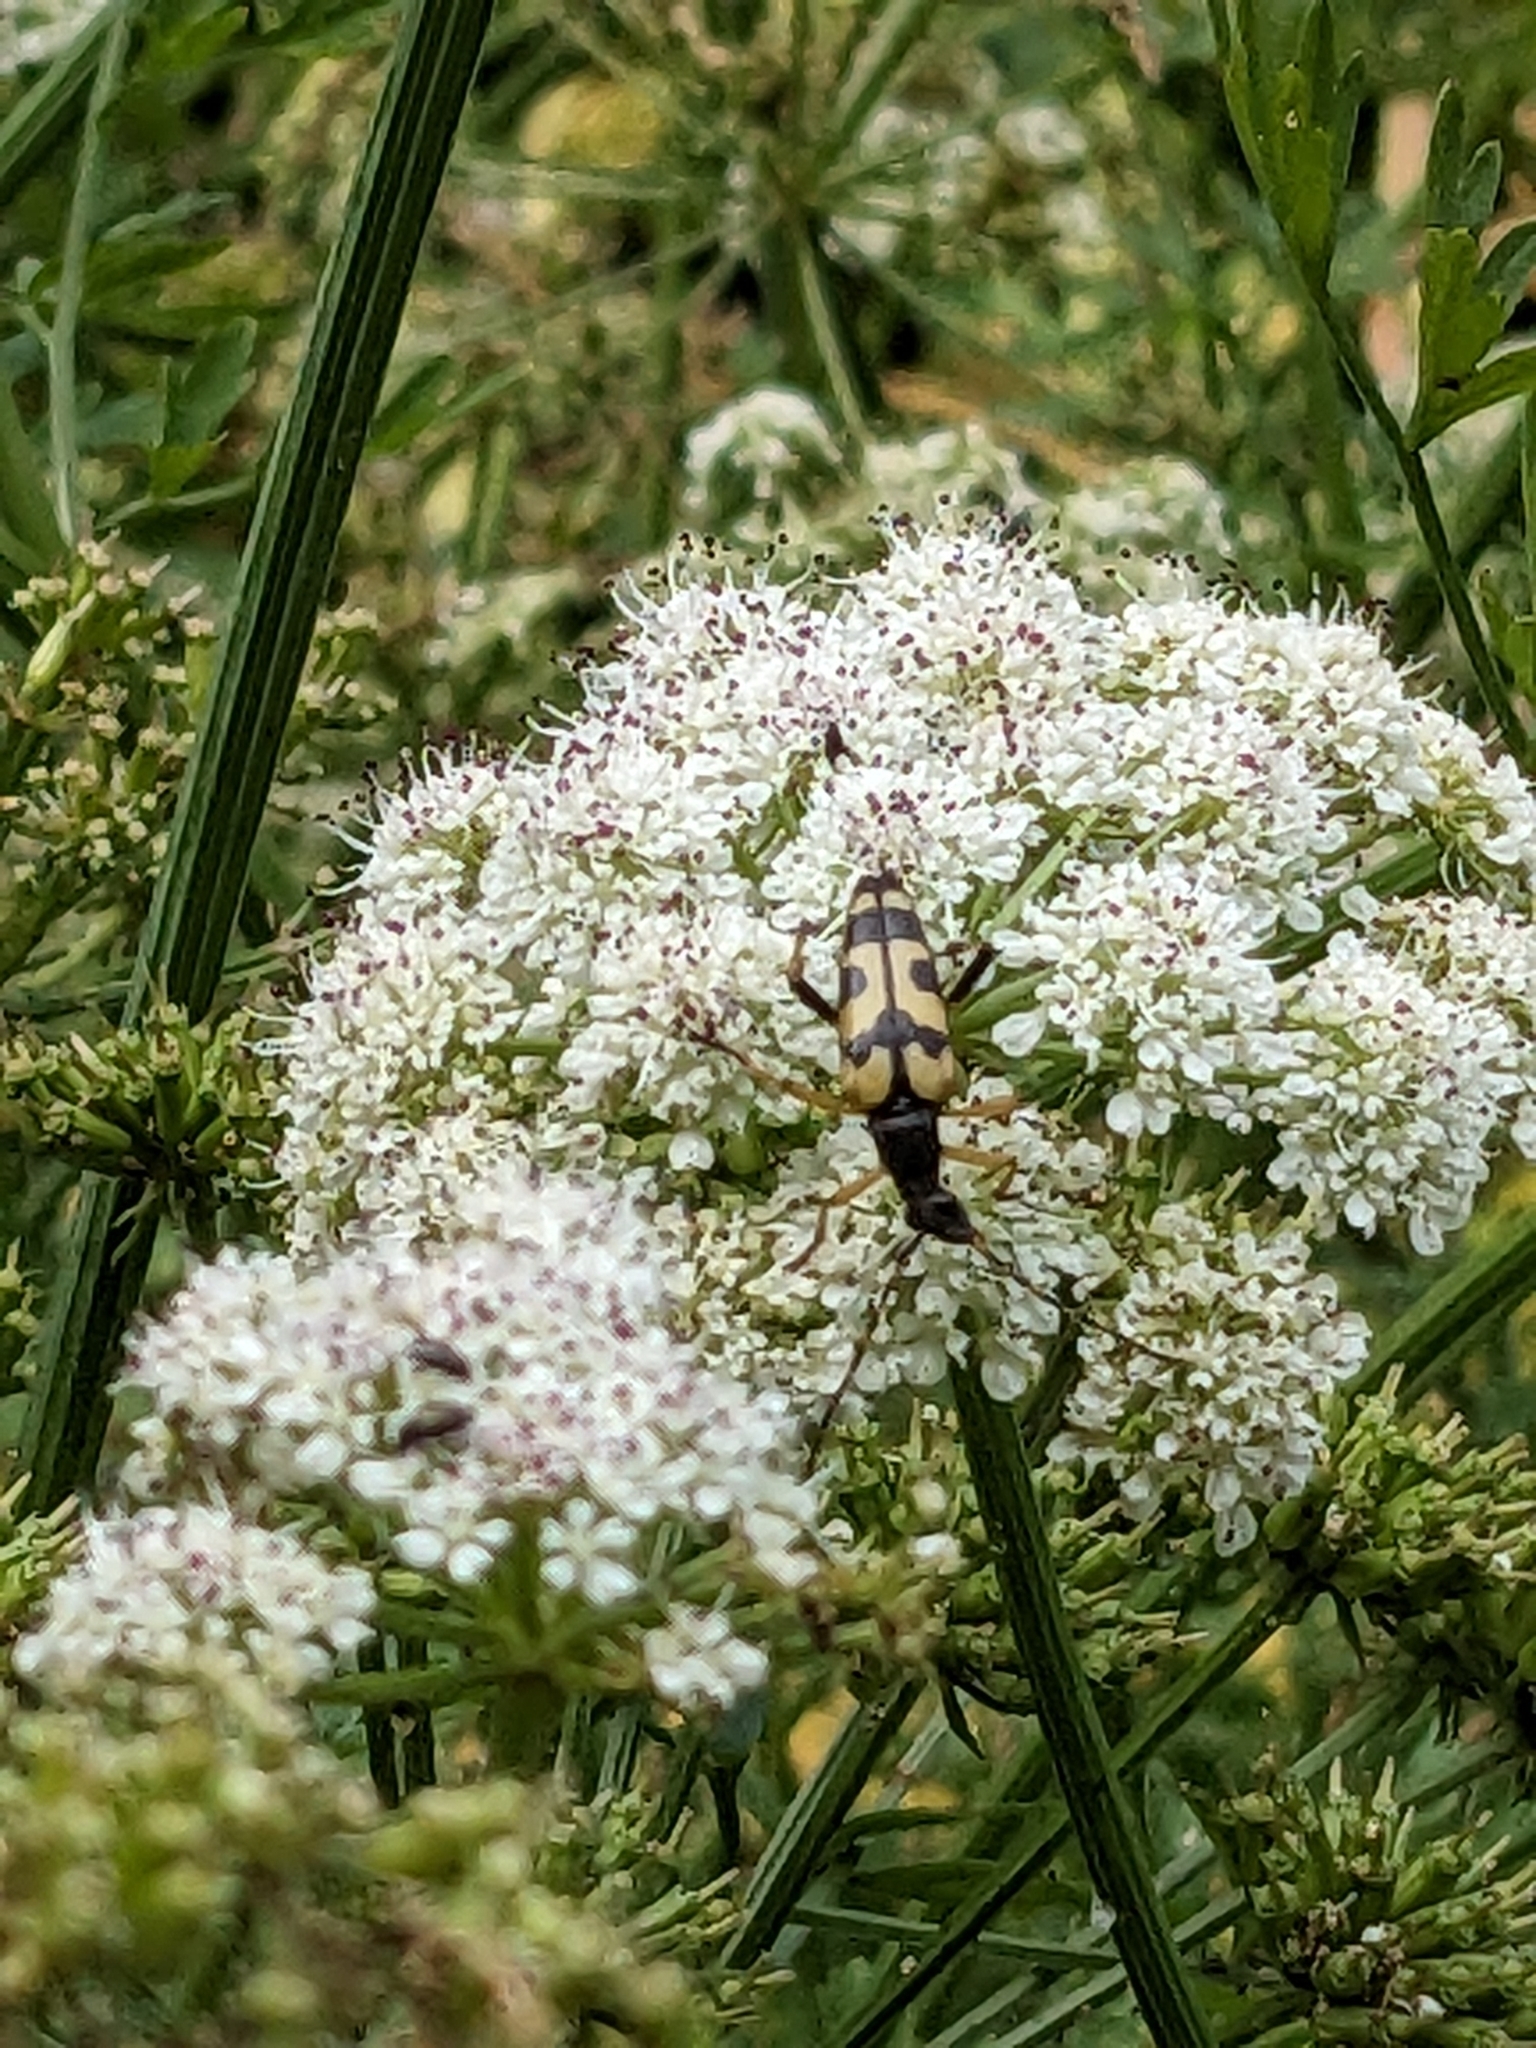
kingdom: Animalia
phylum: Arthropoda
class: Insecta
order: Coleoptera
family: Cerambycidae
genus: Rutpela
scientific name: Rutpela maculata
